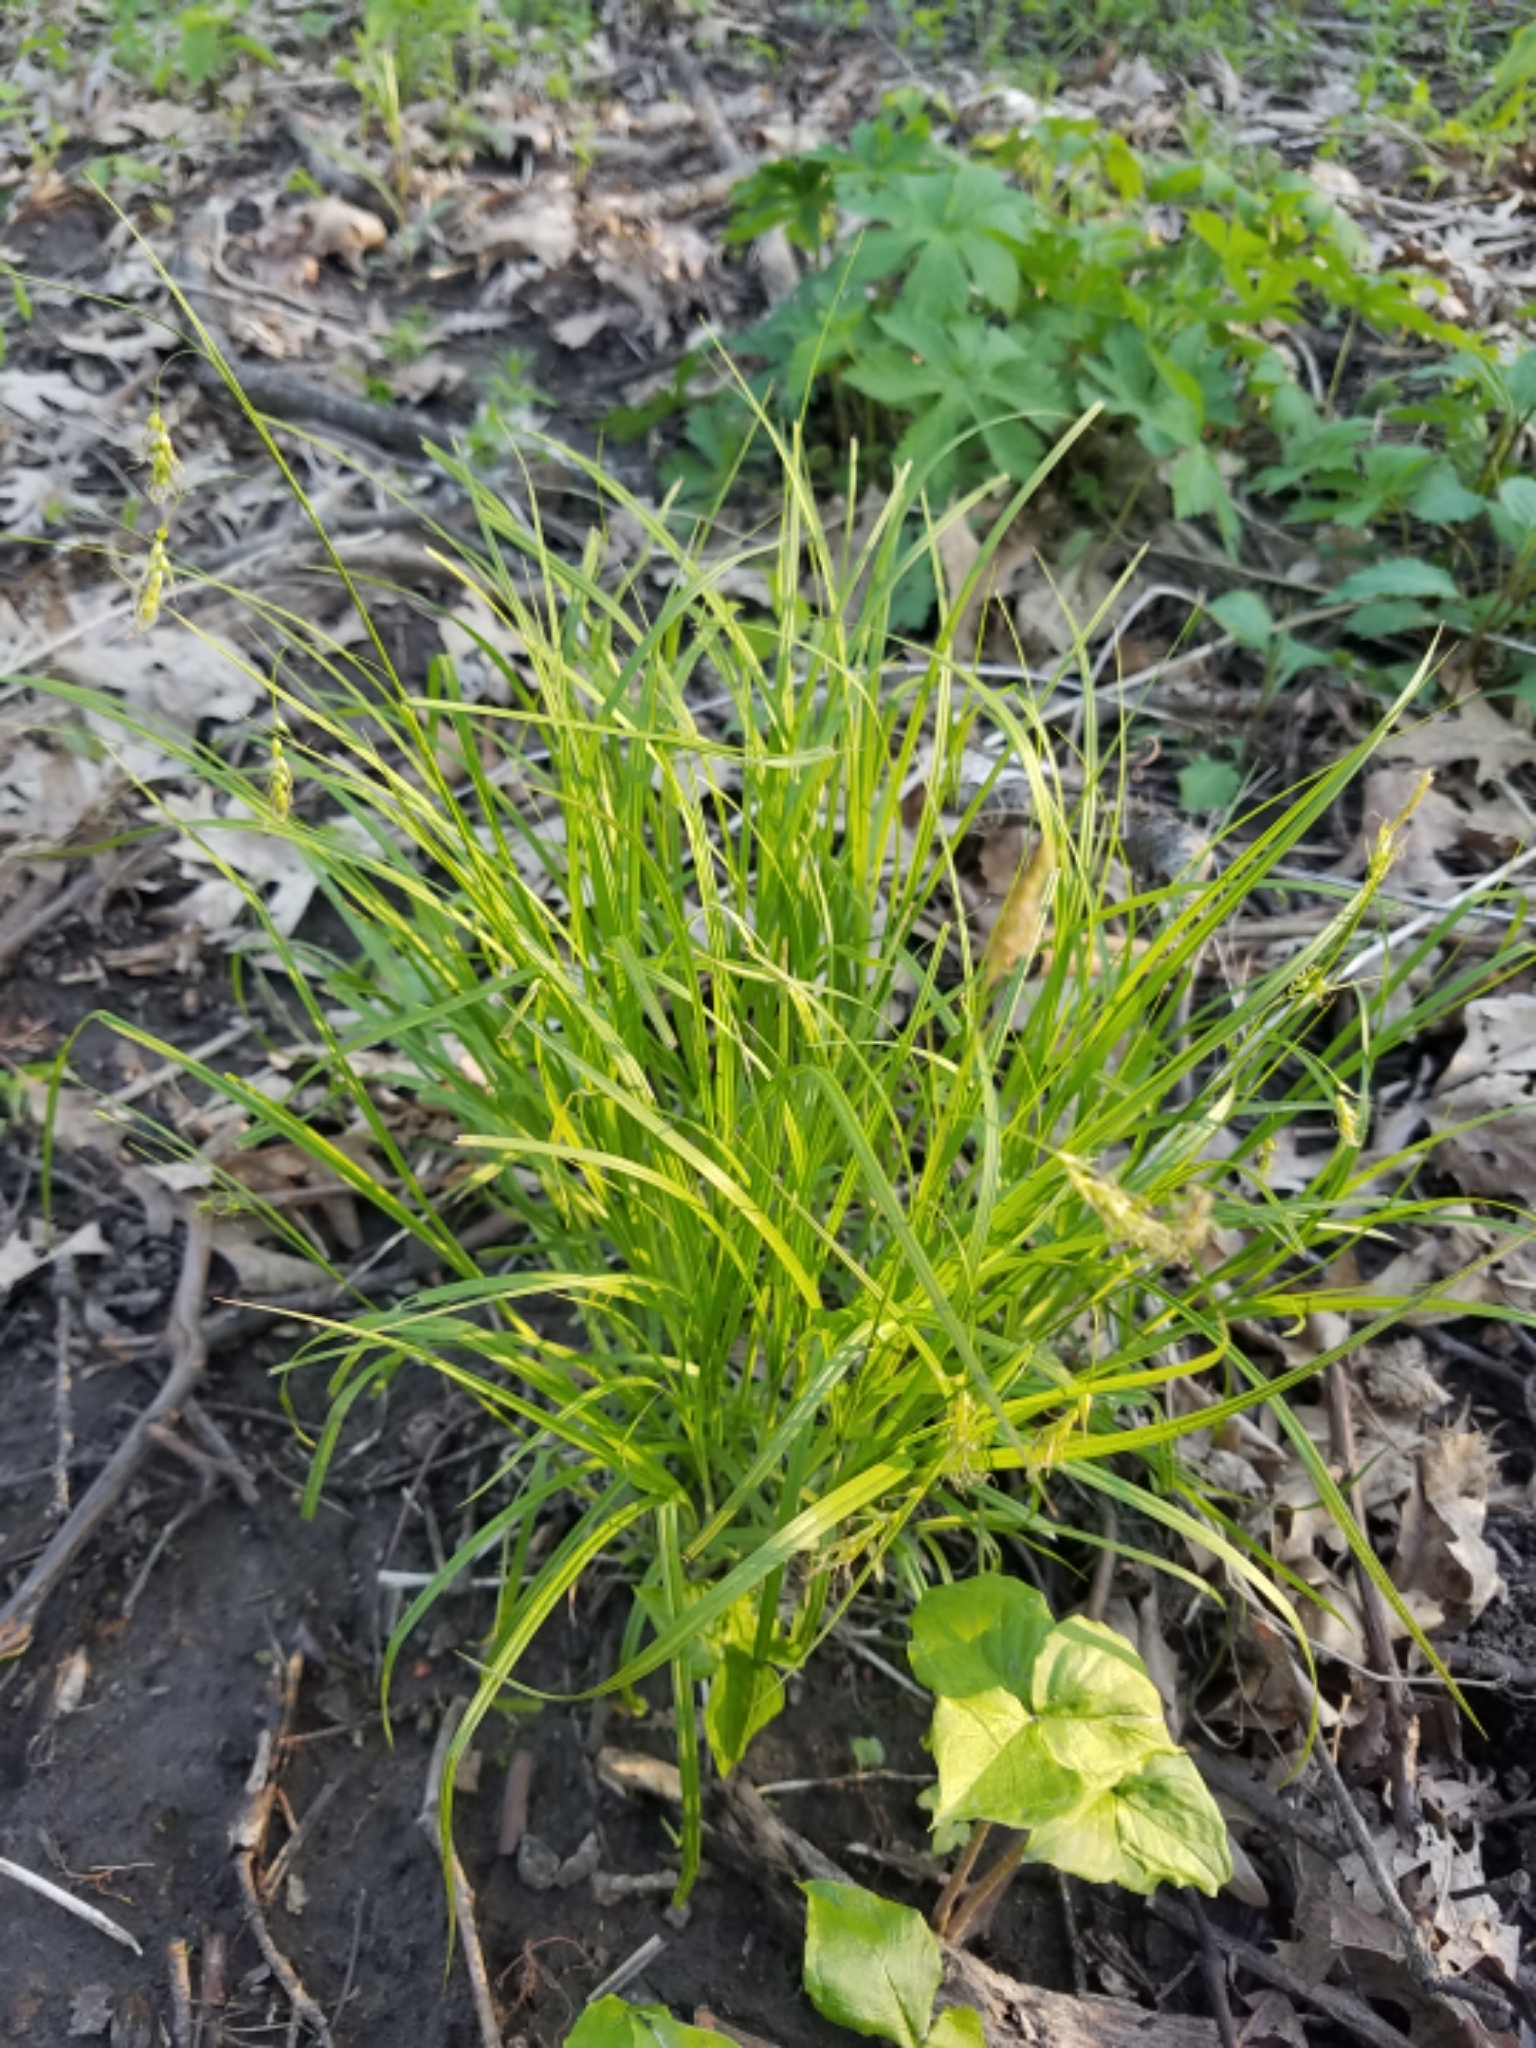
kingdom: Plantae
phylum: Tracheophyta
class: Liliopsida
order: Poales
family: Cyperaceae
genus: Carex
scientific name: Carex sprengelii
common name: Long-beaked sedge
